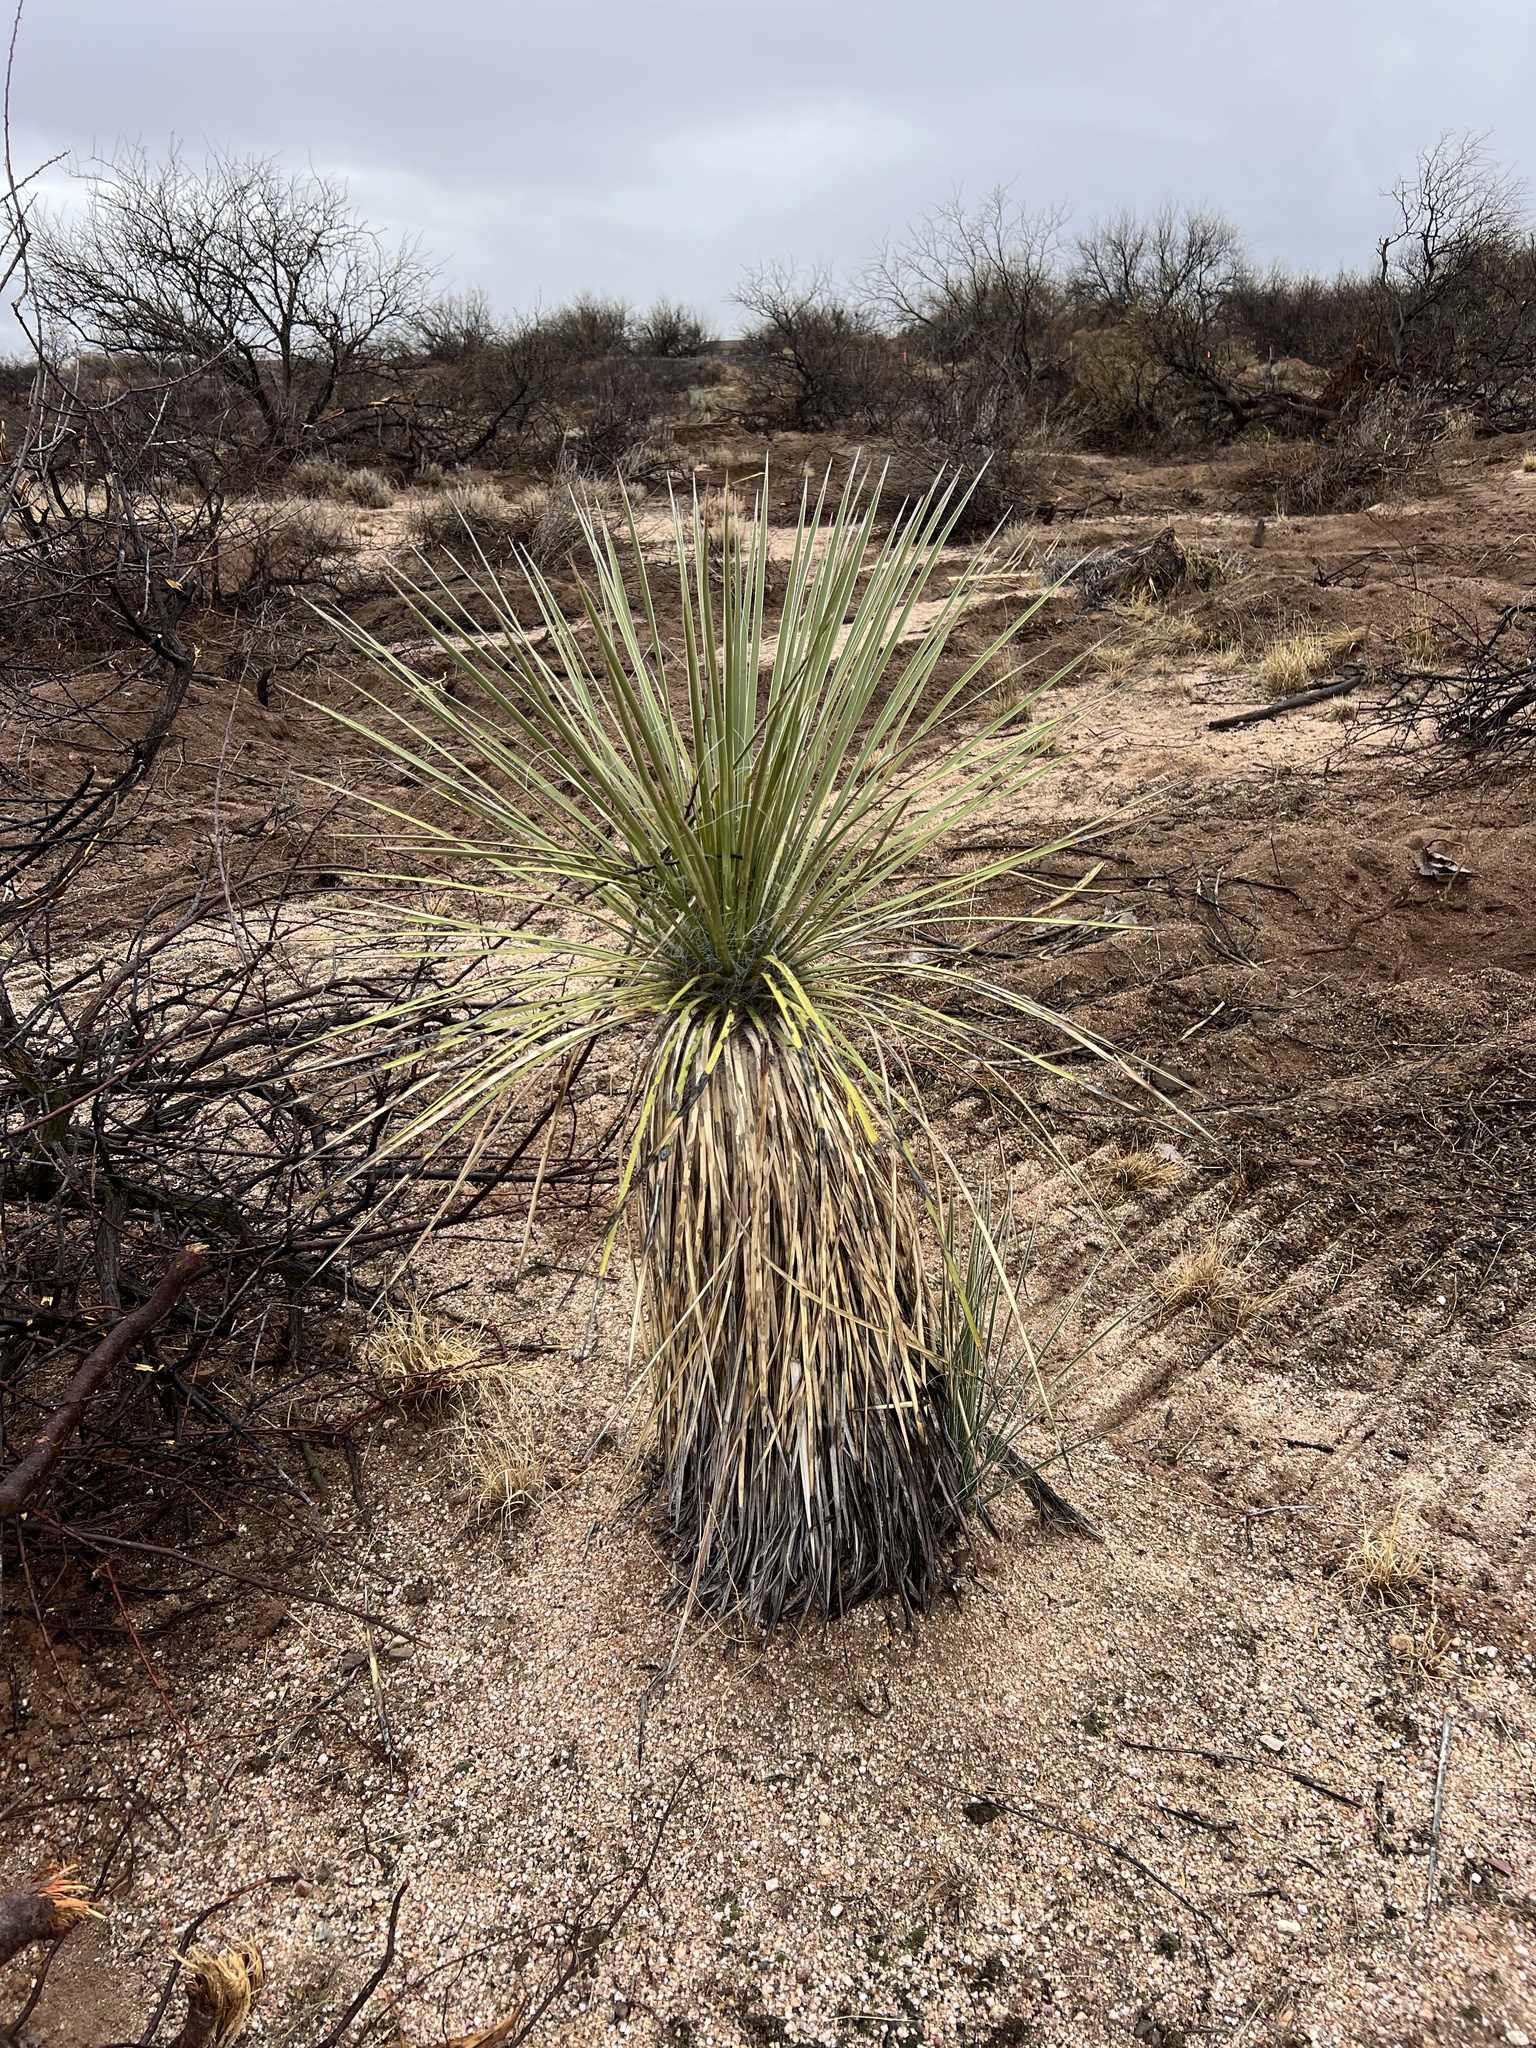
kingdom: Plantae
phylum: Tracheophyta
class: Liliopsida
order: Asparagales
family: Asparagaceae
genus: Yucca
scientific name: Yucca elata
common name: Palmella
